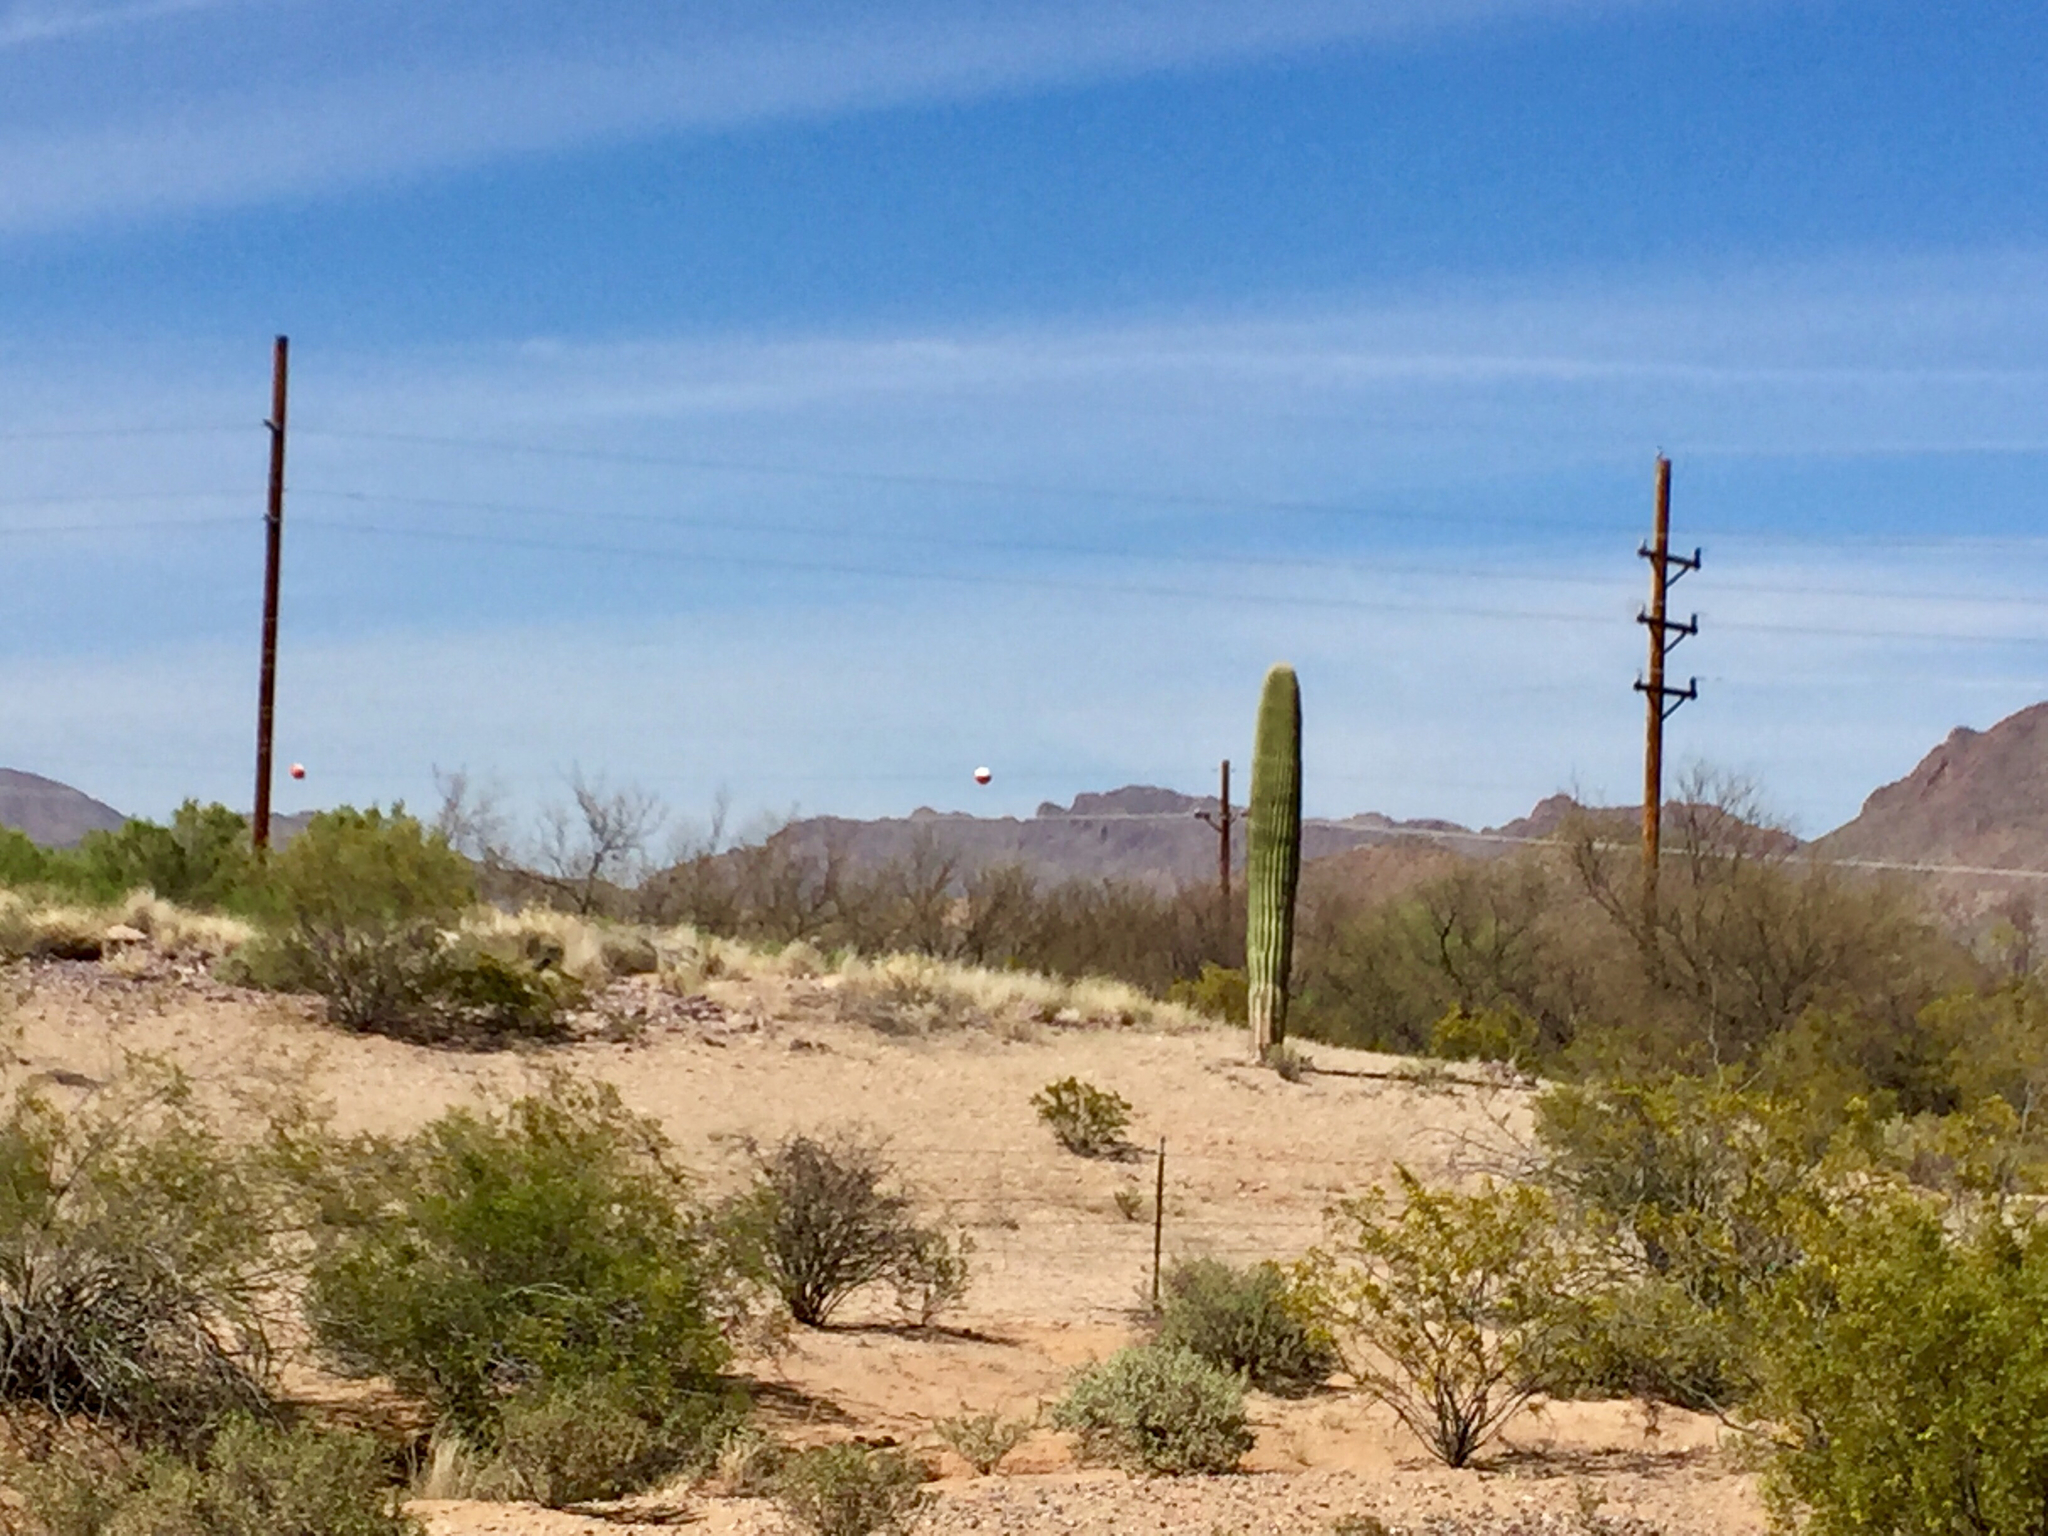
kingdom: Plantae
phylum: Tracheophyta
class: Magnoliopsida
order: Caryophyllales
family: Cactaceae
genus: Carnegiea
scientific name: Carnegiea gigantea
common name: Saguaro
